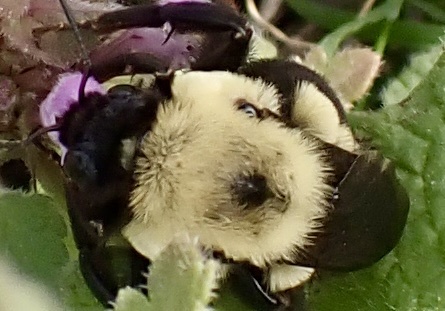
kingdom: Animalia
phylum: Arthropoda
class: Insecta
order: Hymenoptera
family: Apidae
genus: Bombus
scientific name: Bombus bimaculatus
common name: Two-spotted bumble bee
